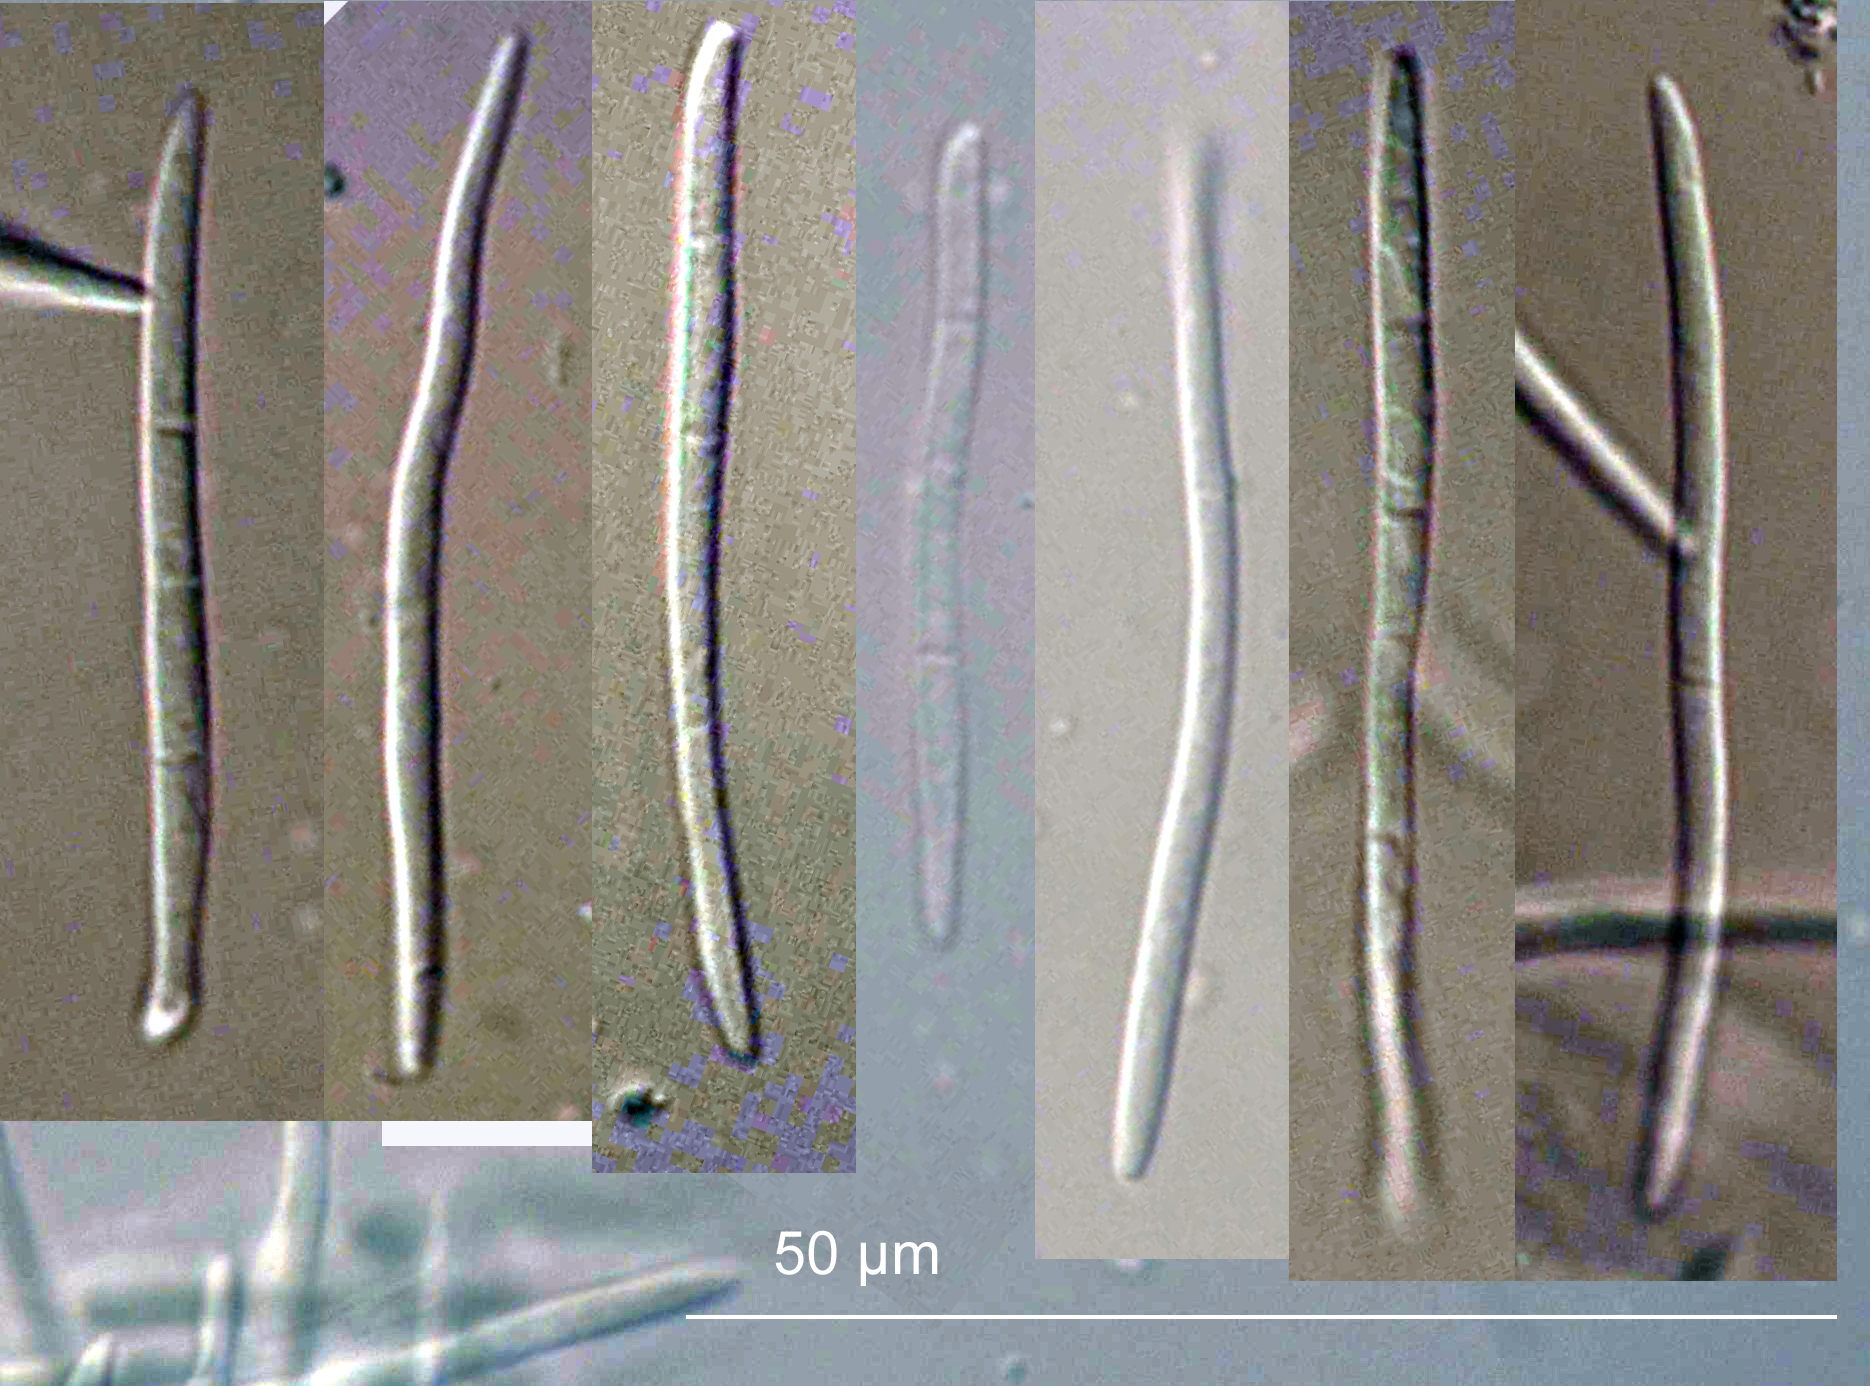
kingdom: Fungi
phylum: Ascomycota
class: Dothideomycetes
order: Mycosphaerellales
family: Mycosphaerellaceae
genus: Septoria
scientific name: Septoria apiicola
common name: Celery late blight
